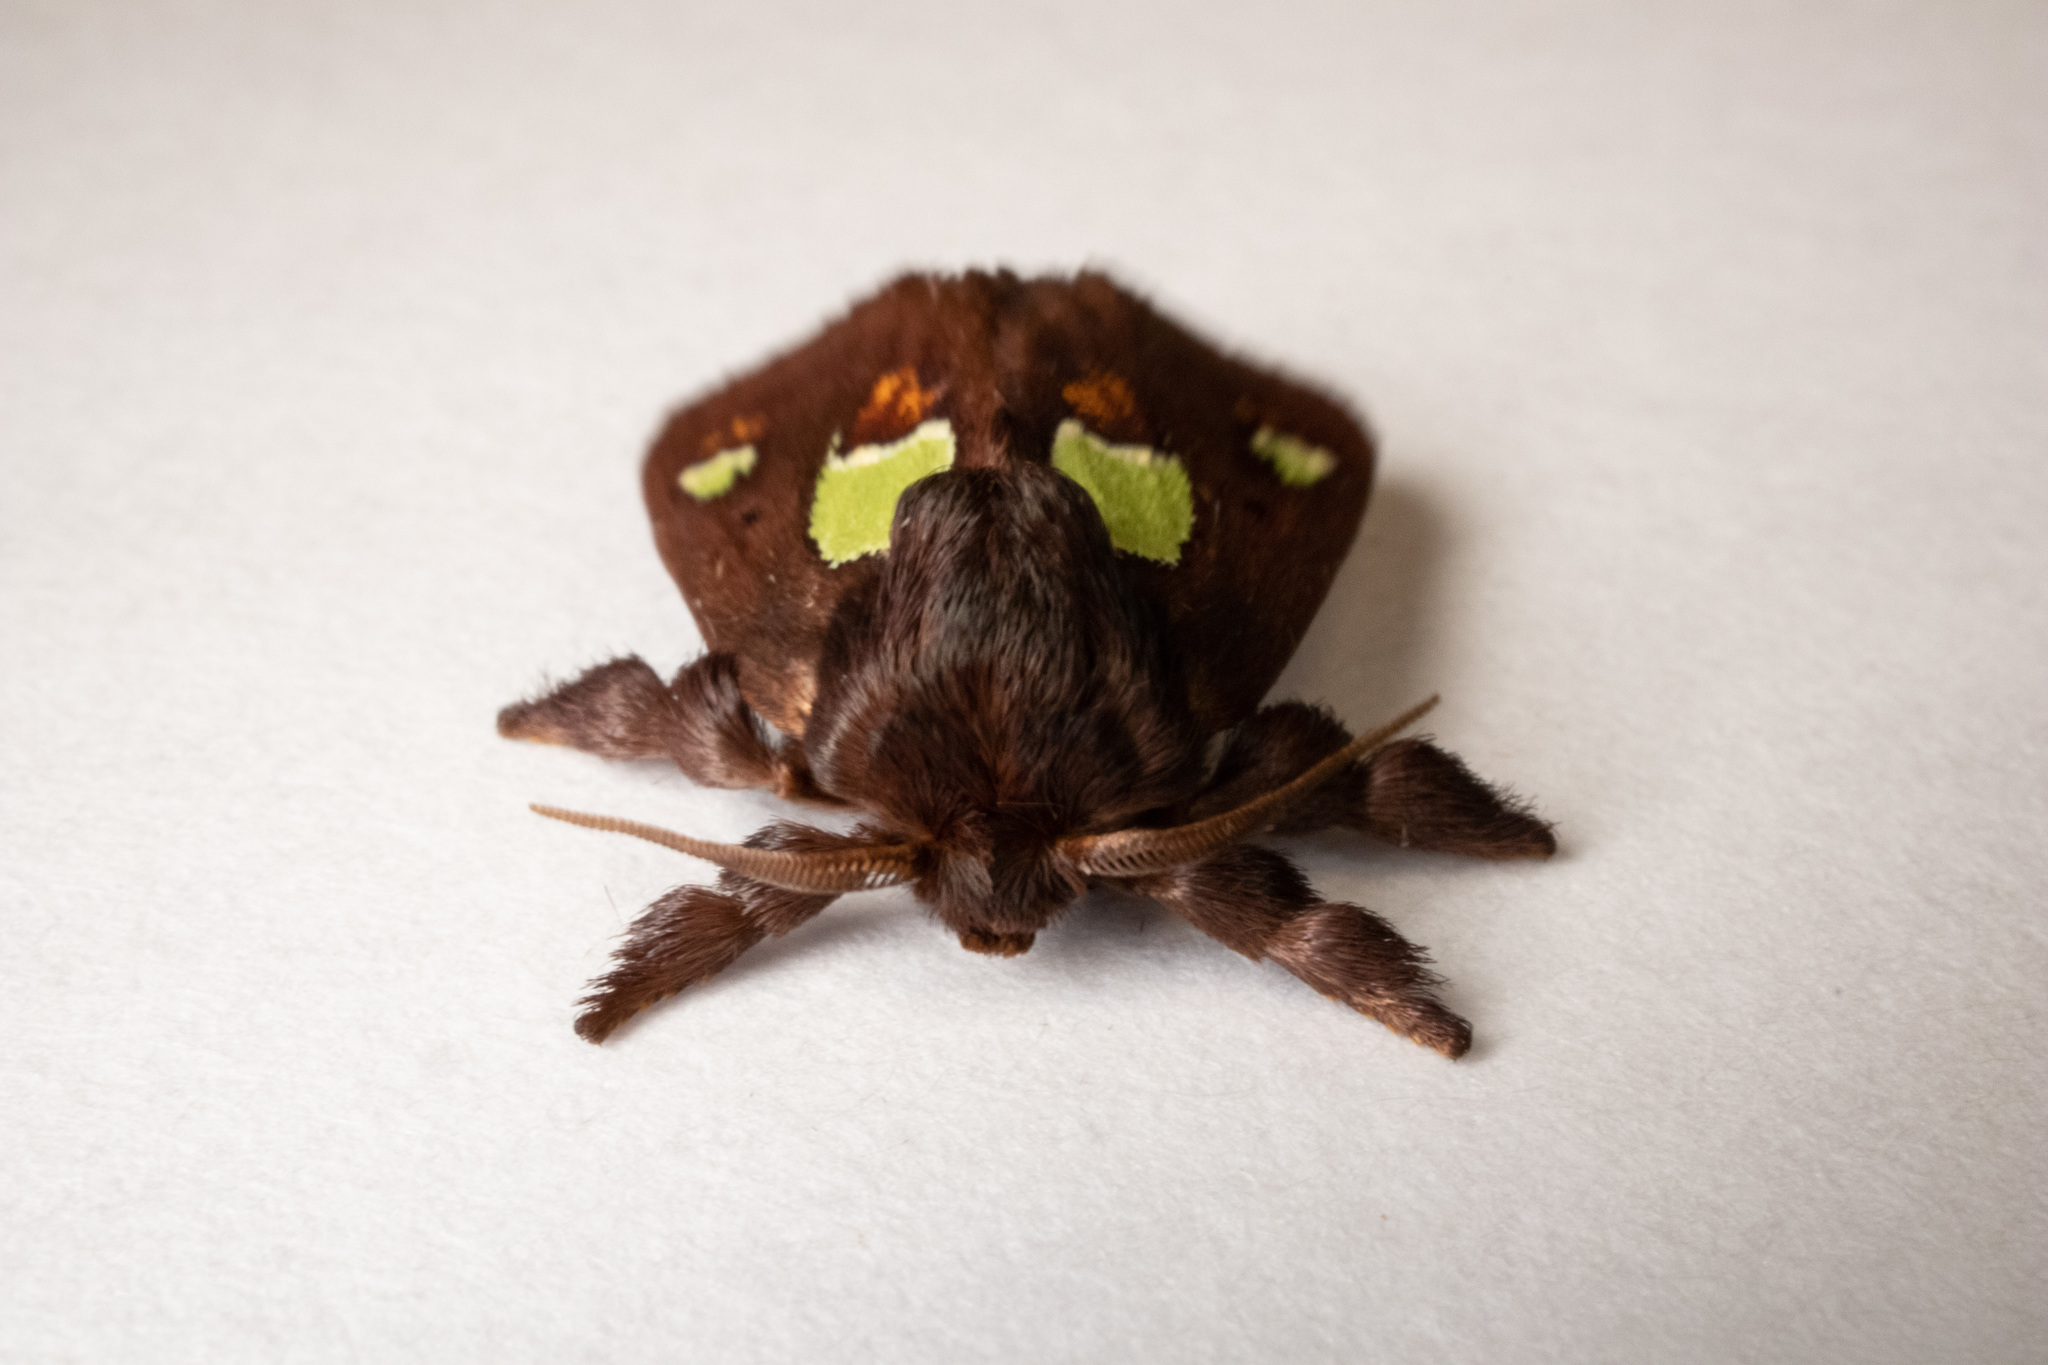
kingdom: Animalia
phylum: Arthropoda
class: Insecta
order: Lepidoptera
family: Limacodidae
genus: Euclea
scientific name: Euclea nanina
